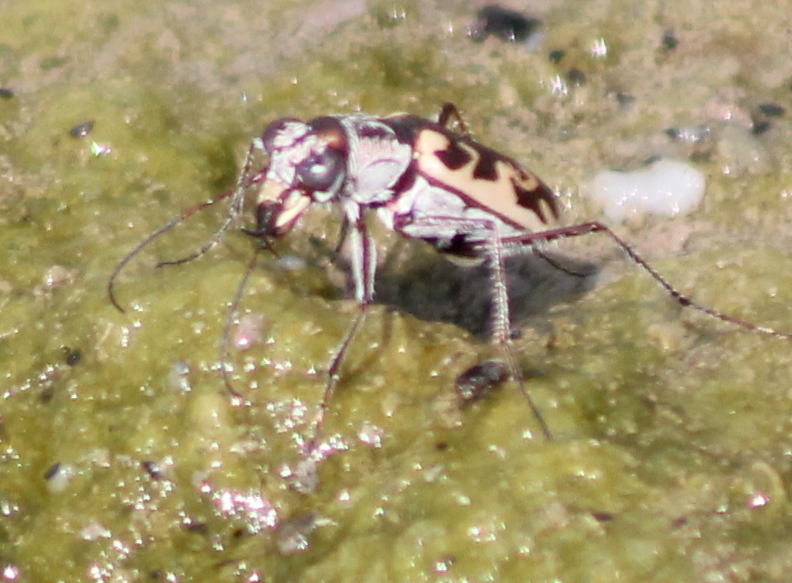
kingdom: Animalia
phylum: Arthropoda
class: Insecta
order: Coleoptera
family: Carabidae
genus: Ellipsoptera
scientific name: Ellipsoptera macra
